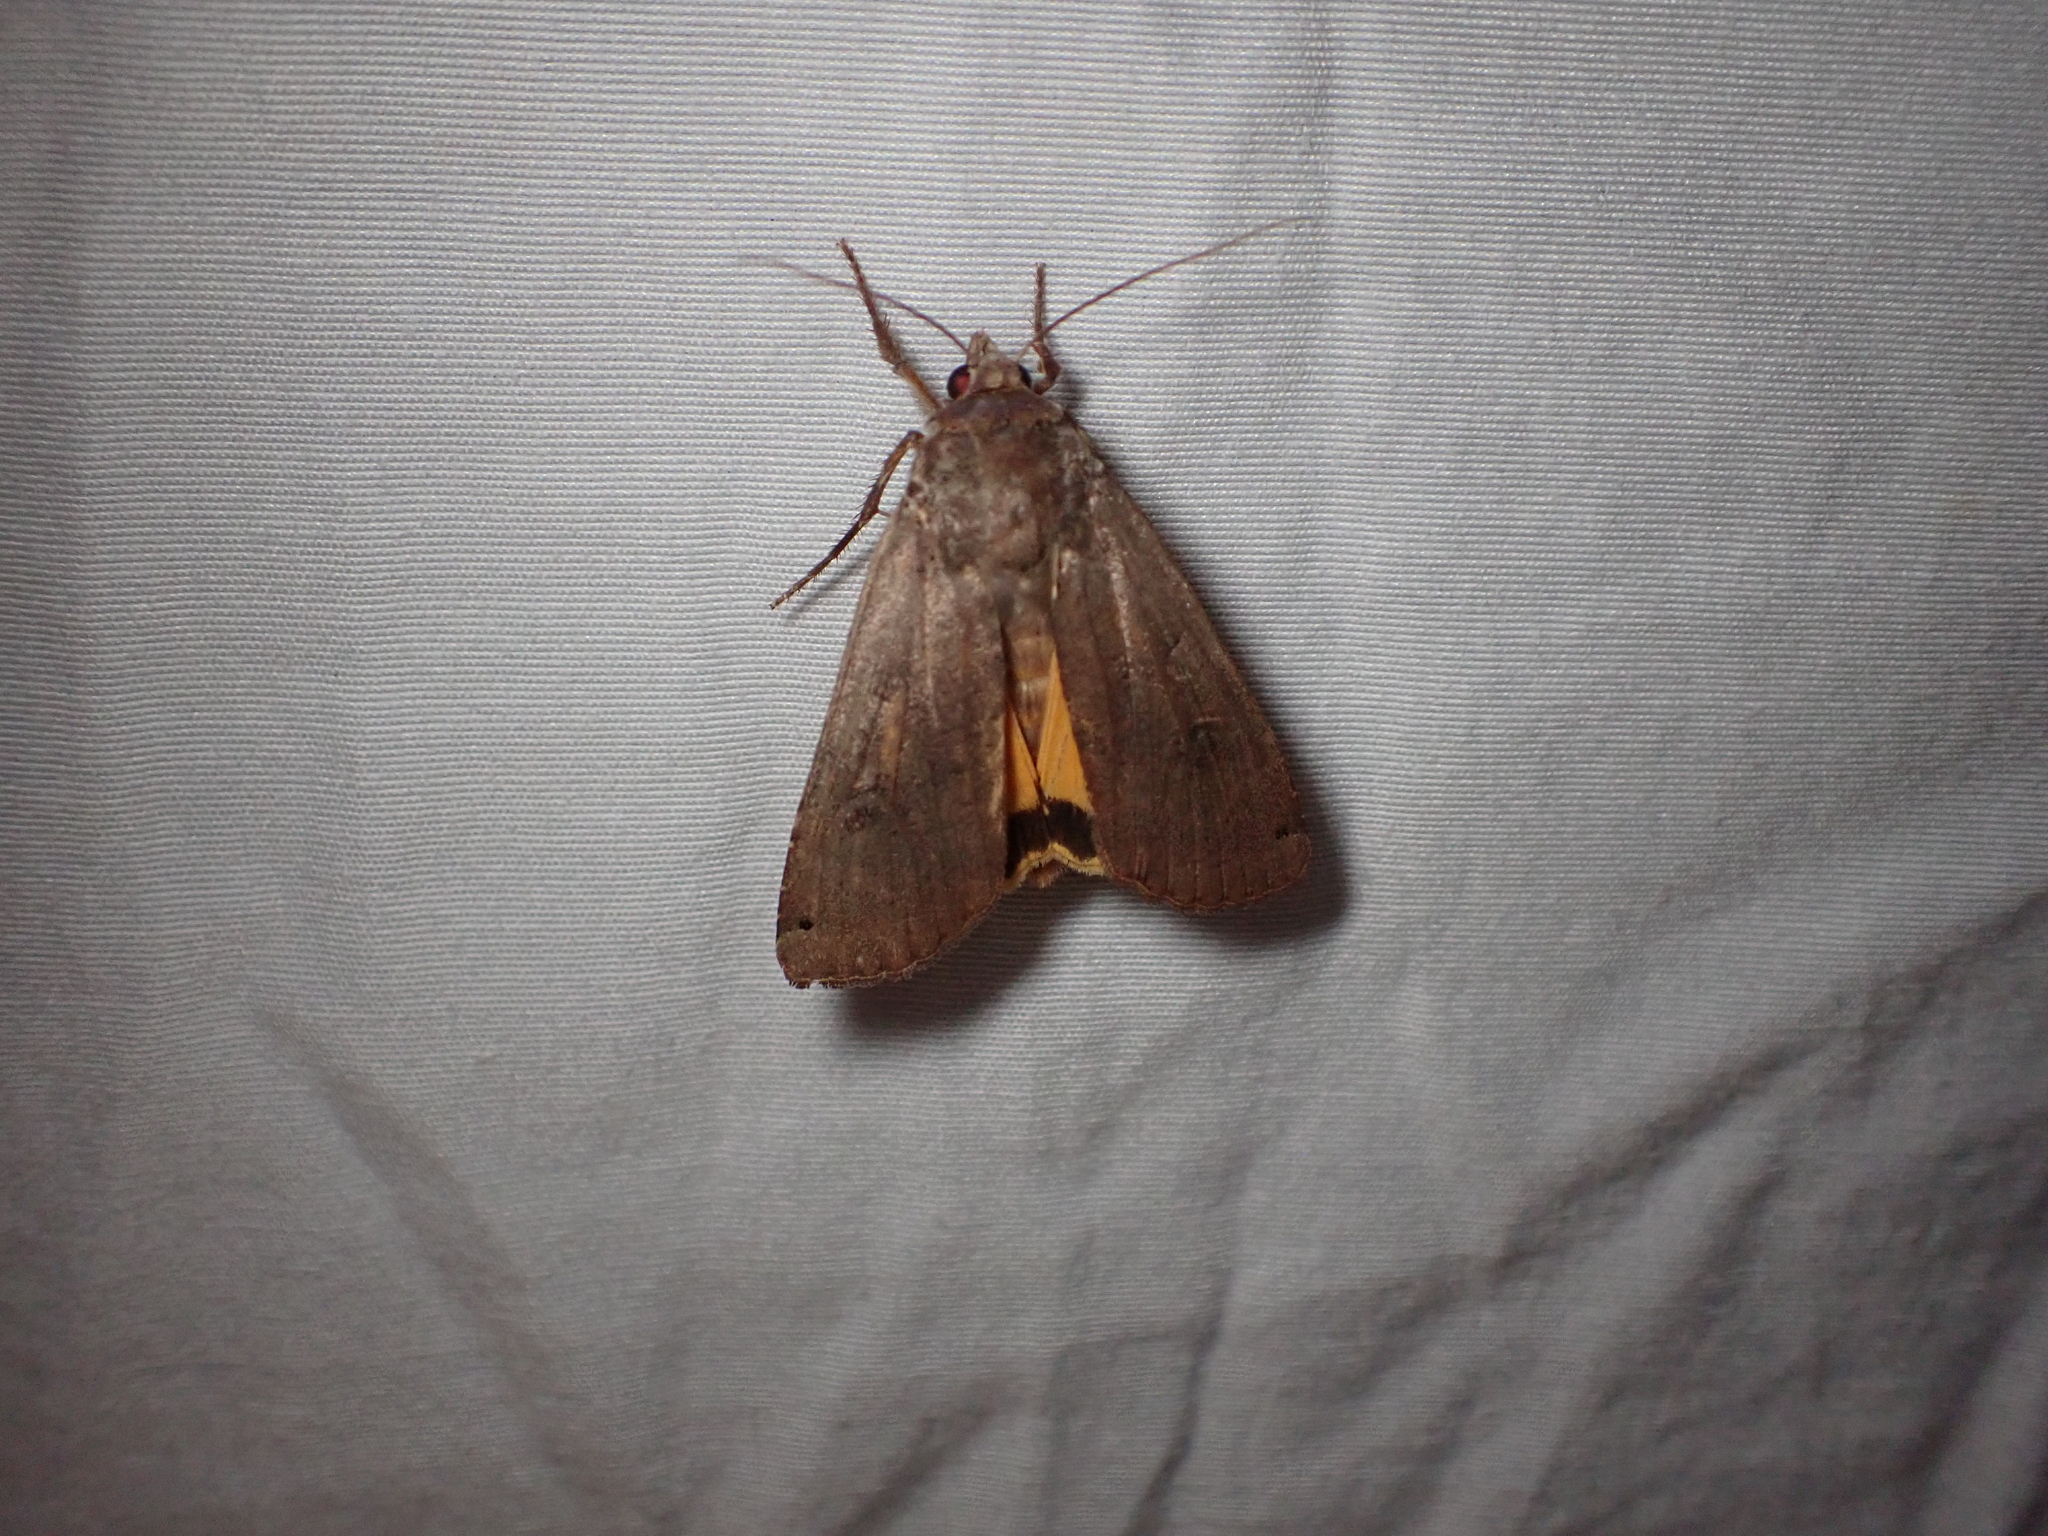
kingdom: Animalia
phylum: Arthropoda
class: Insecta
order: Lepidoptera
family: Noctuidae
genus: Noctua
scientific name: Noctua pronuba
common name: Large yellow underwing
